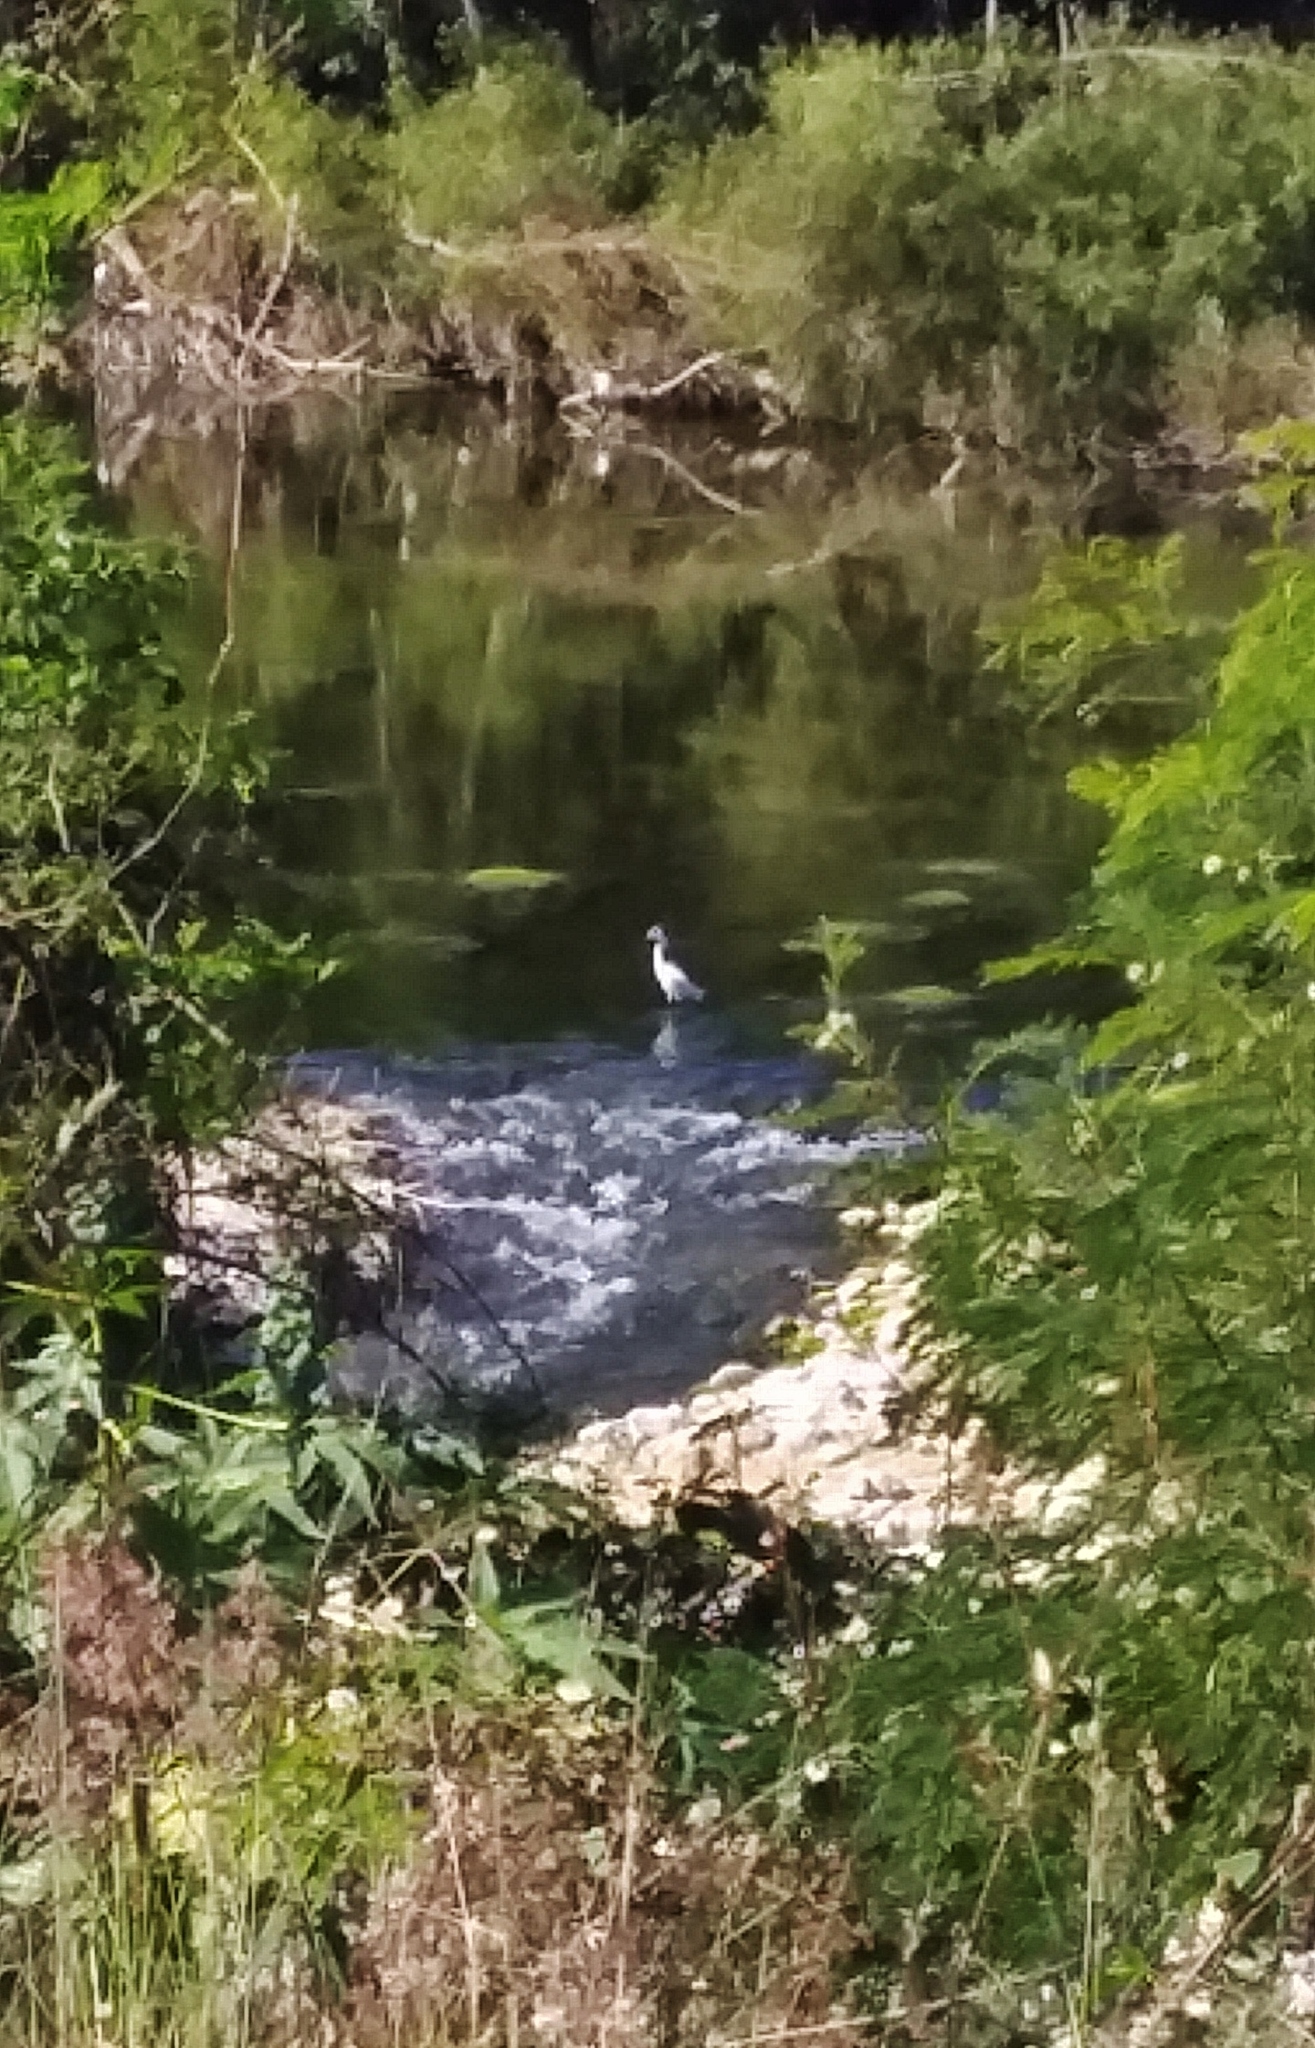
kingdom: Animalia
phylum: Chordata
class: Aves
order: Pelecaniformes
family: Ardeidae
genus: Egretta
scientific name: Egretta thula
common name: Snowy egret
